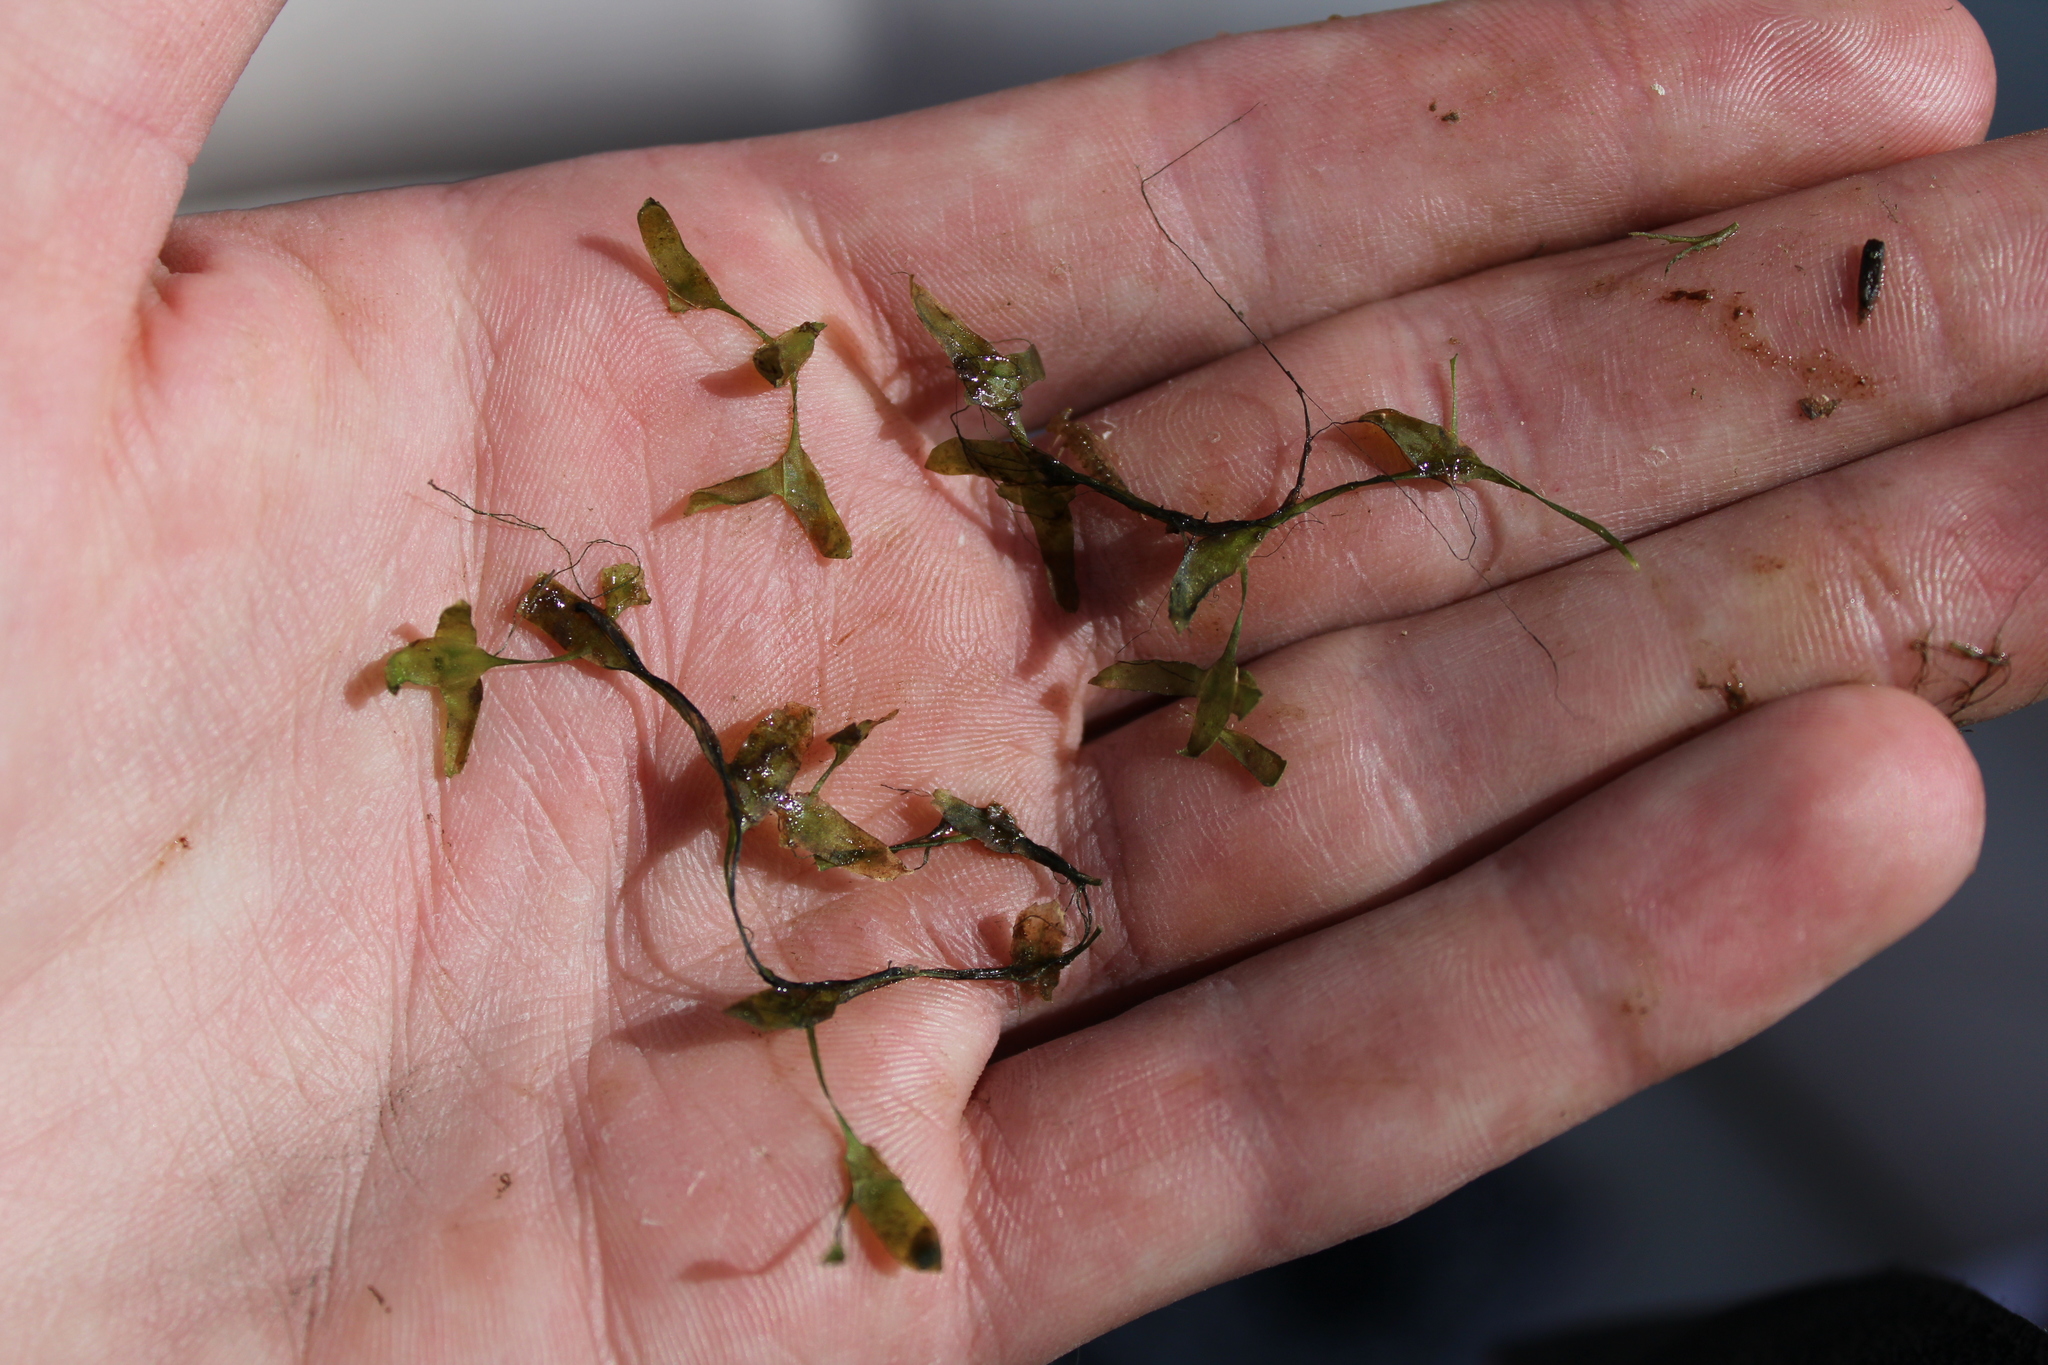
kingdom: Plantae
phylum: Tracheophyta
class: Liliopsida
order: Alismatales
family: Araceae
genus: Lemna
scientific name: Lemna trisulca
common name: Ivy-leaved duckweed
